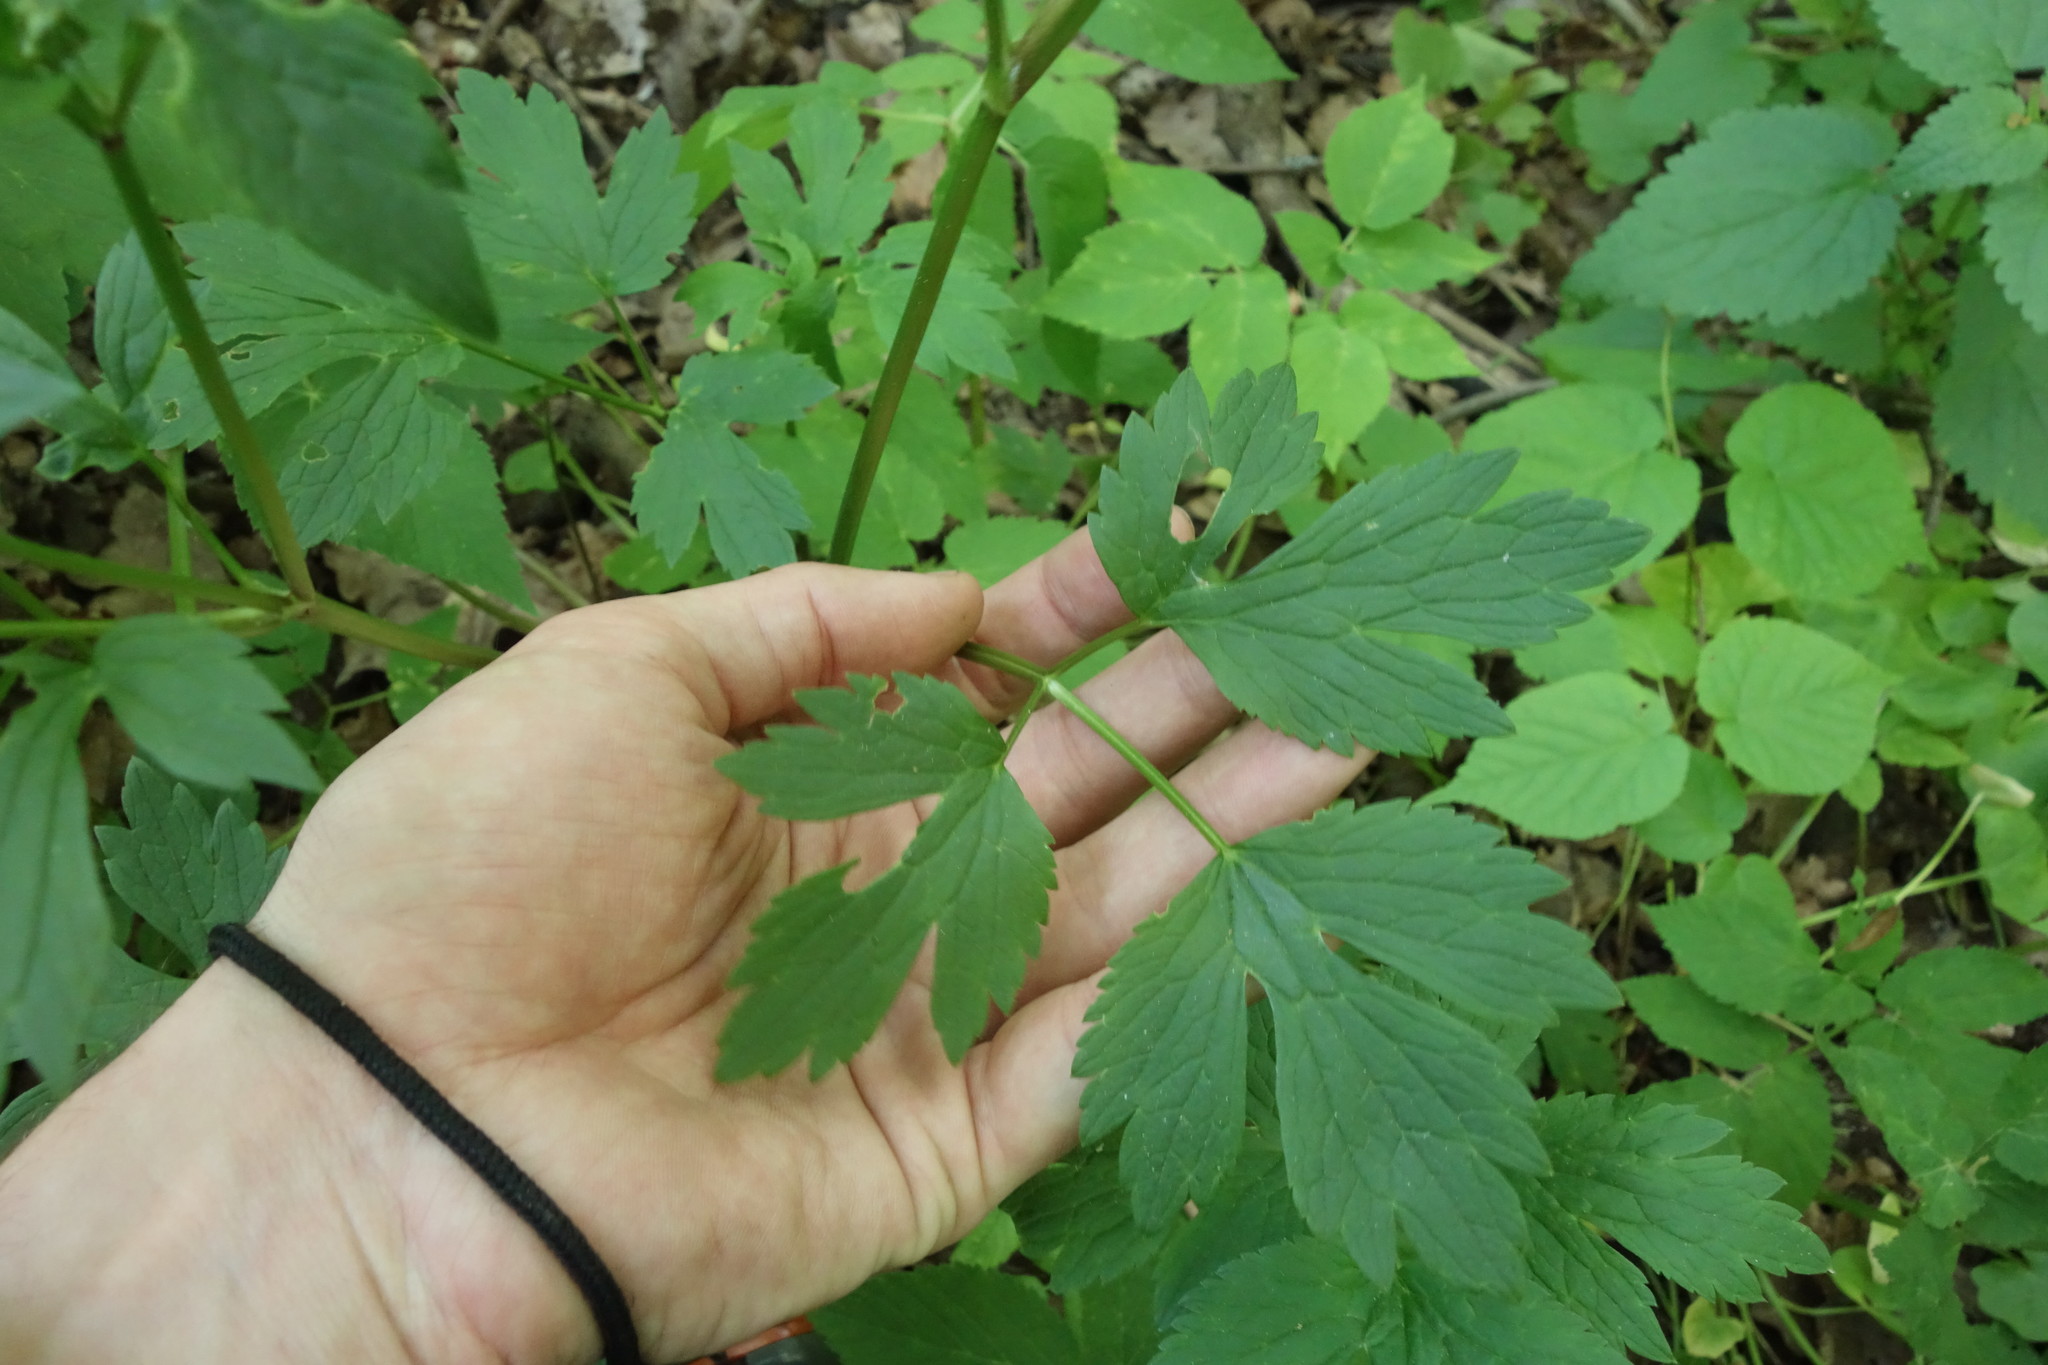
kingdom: Plantae
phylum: Tracheophyta
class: Magnoliopsida
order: Ranunculales
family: Ranunculaceae
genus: Ranunculus
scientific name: Ranunculus repens
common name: Creeping buttercup
